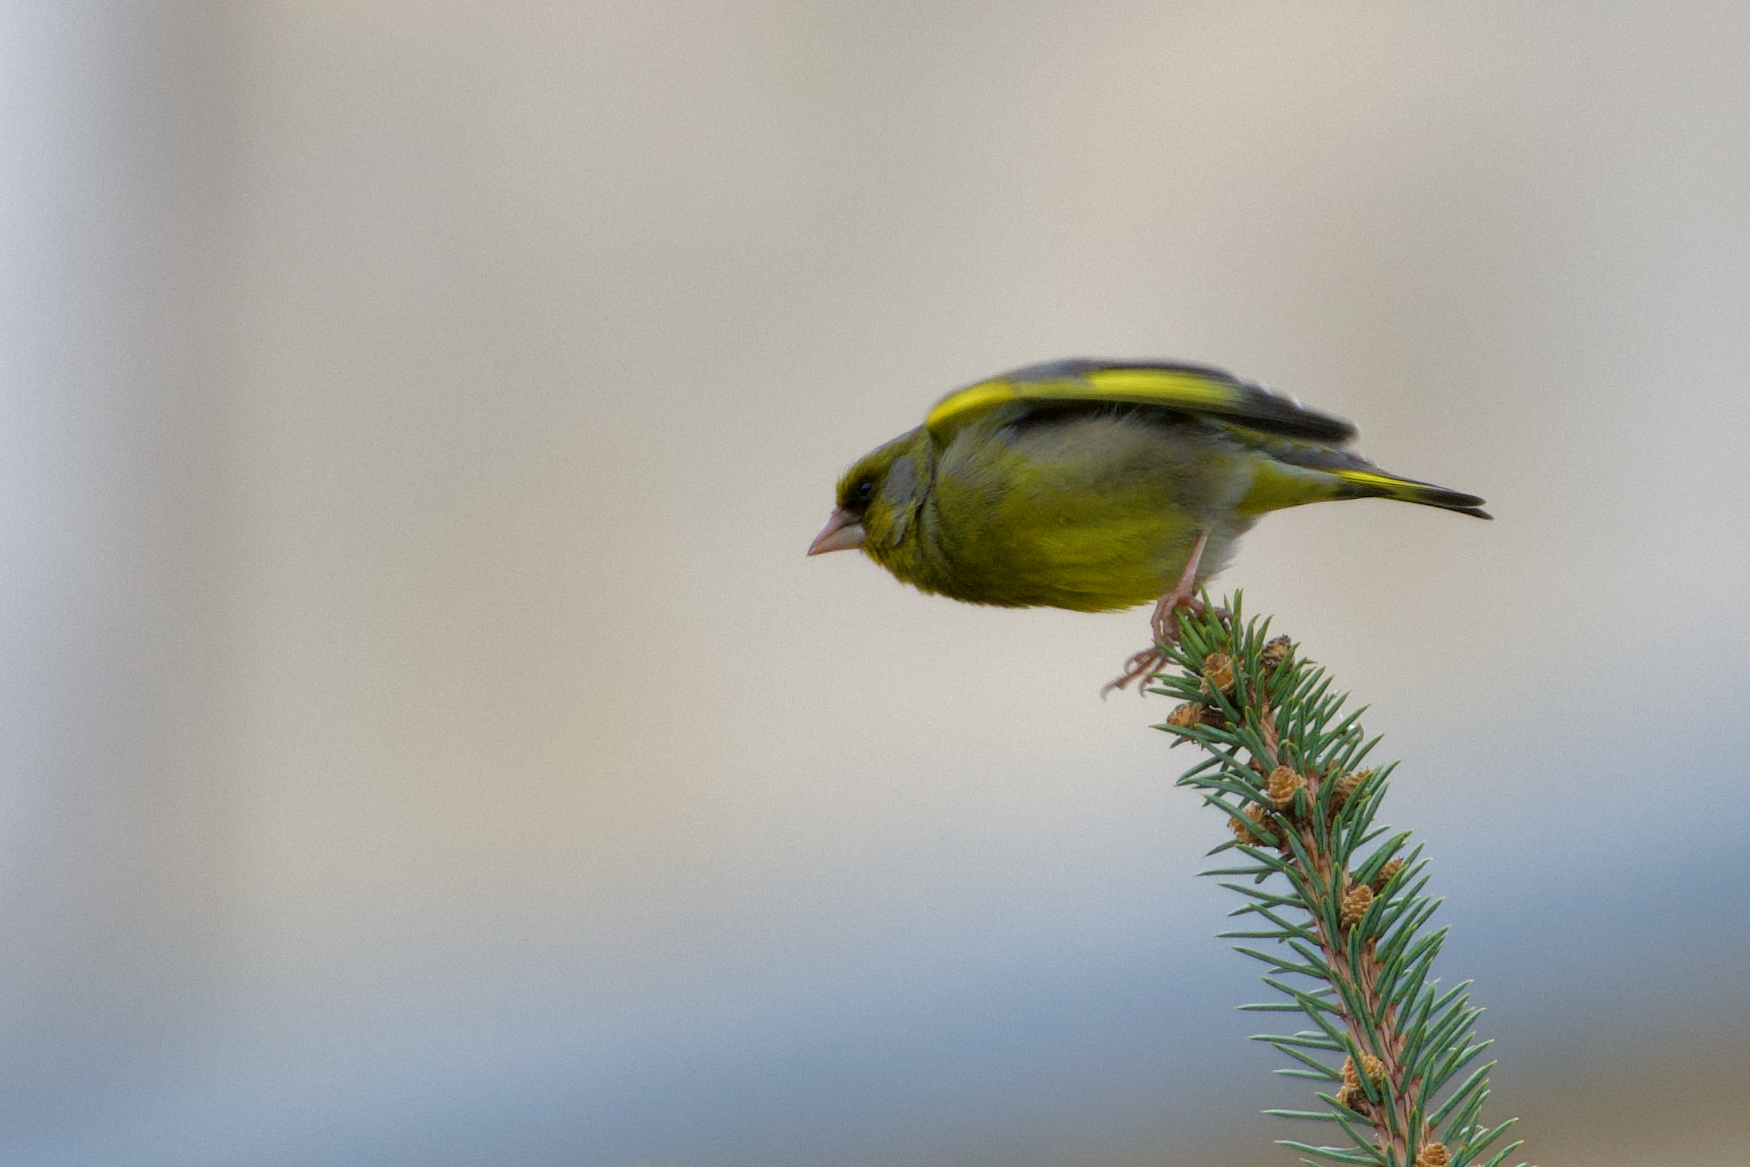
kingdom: Plantae
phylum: Tracheophyta
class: Liliopsida
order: Poales
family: Poaceae
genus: Chloris
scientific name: Chloris chloris
